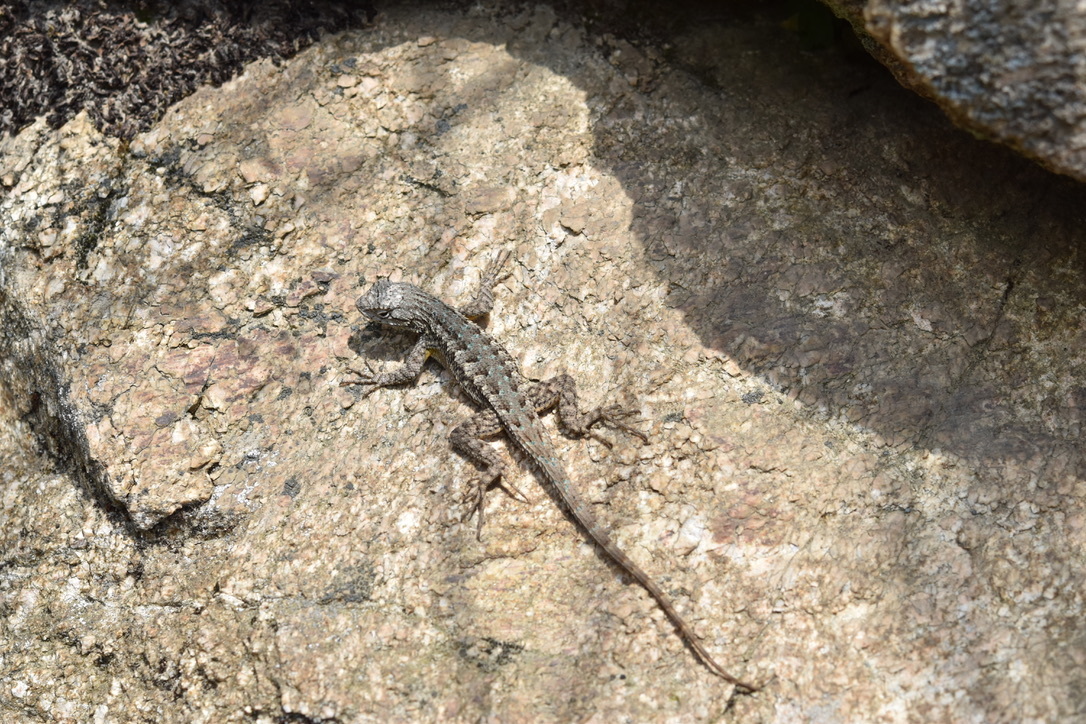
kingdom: Animalia
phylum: Chordata
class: Squamata
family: Phrynosomatidae
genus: Sceloporus
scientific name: Sceloporus occidentalis
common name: Western fence lizard
